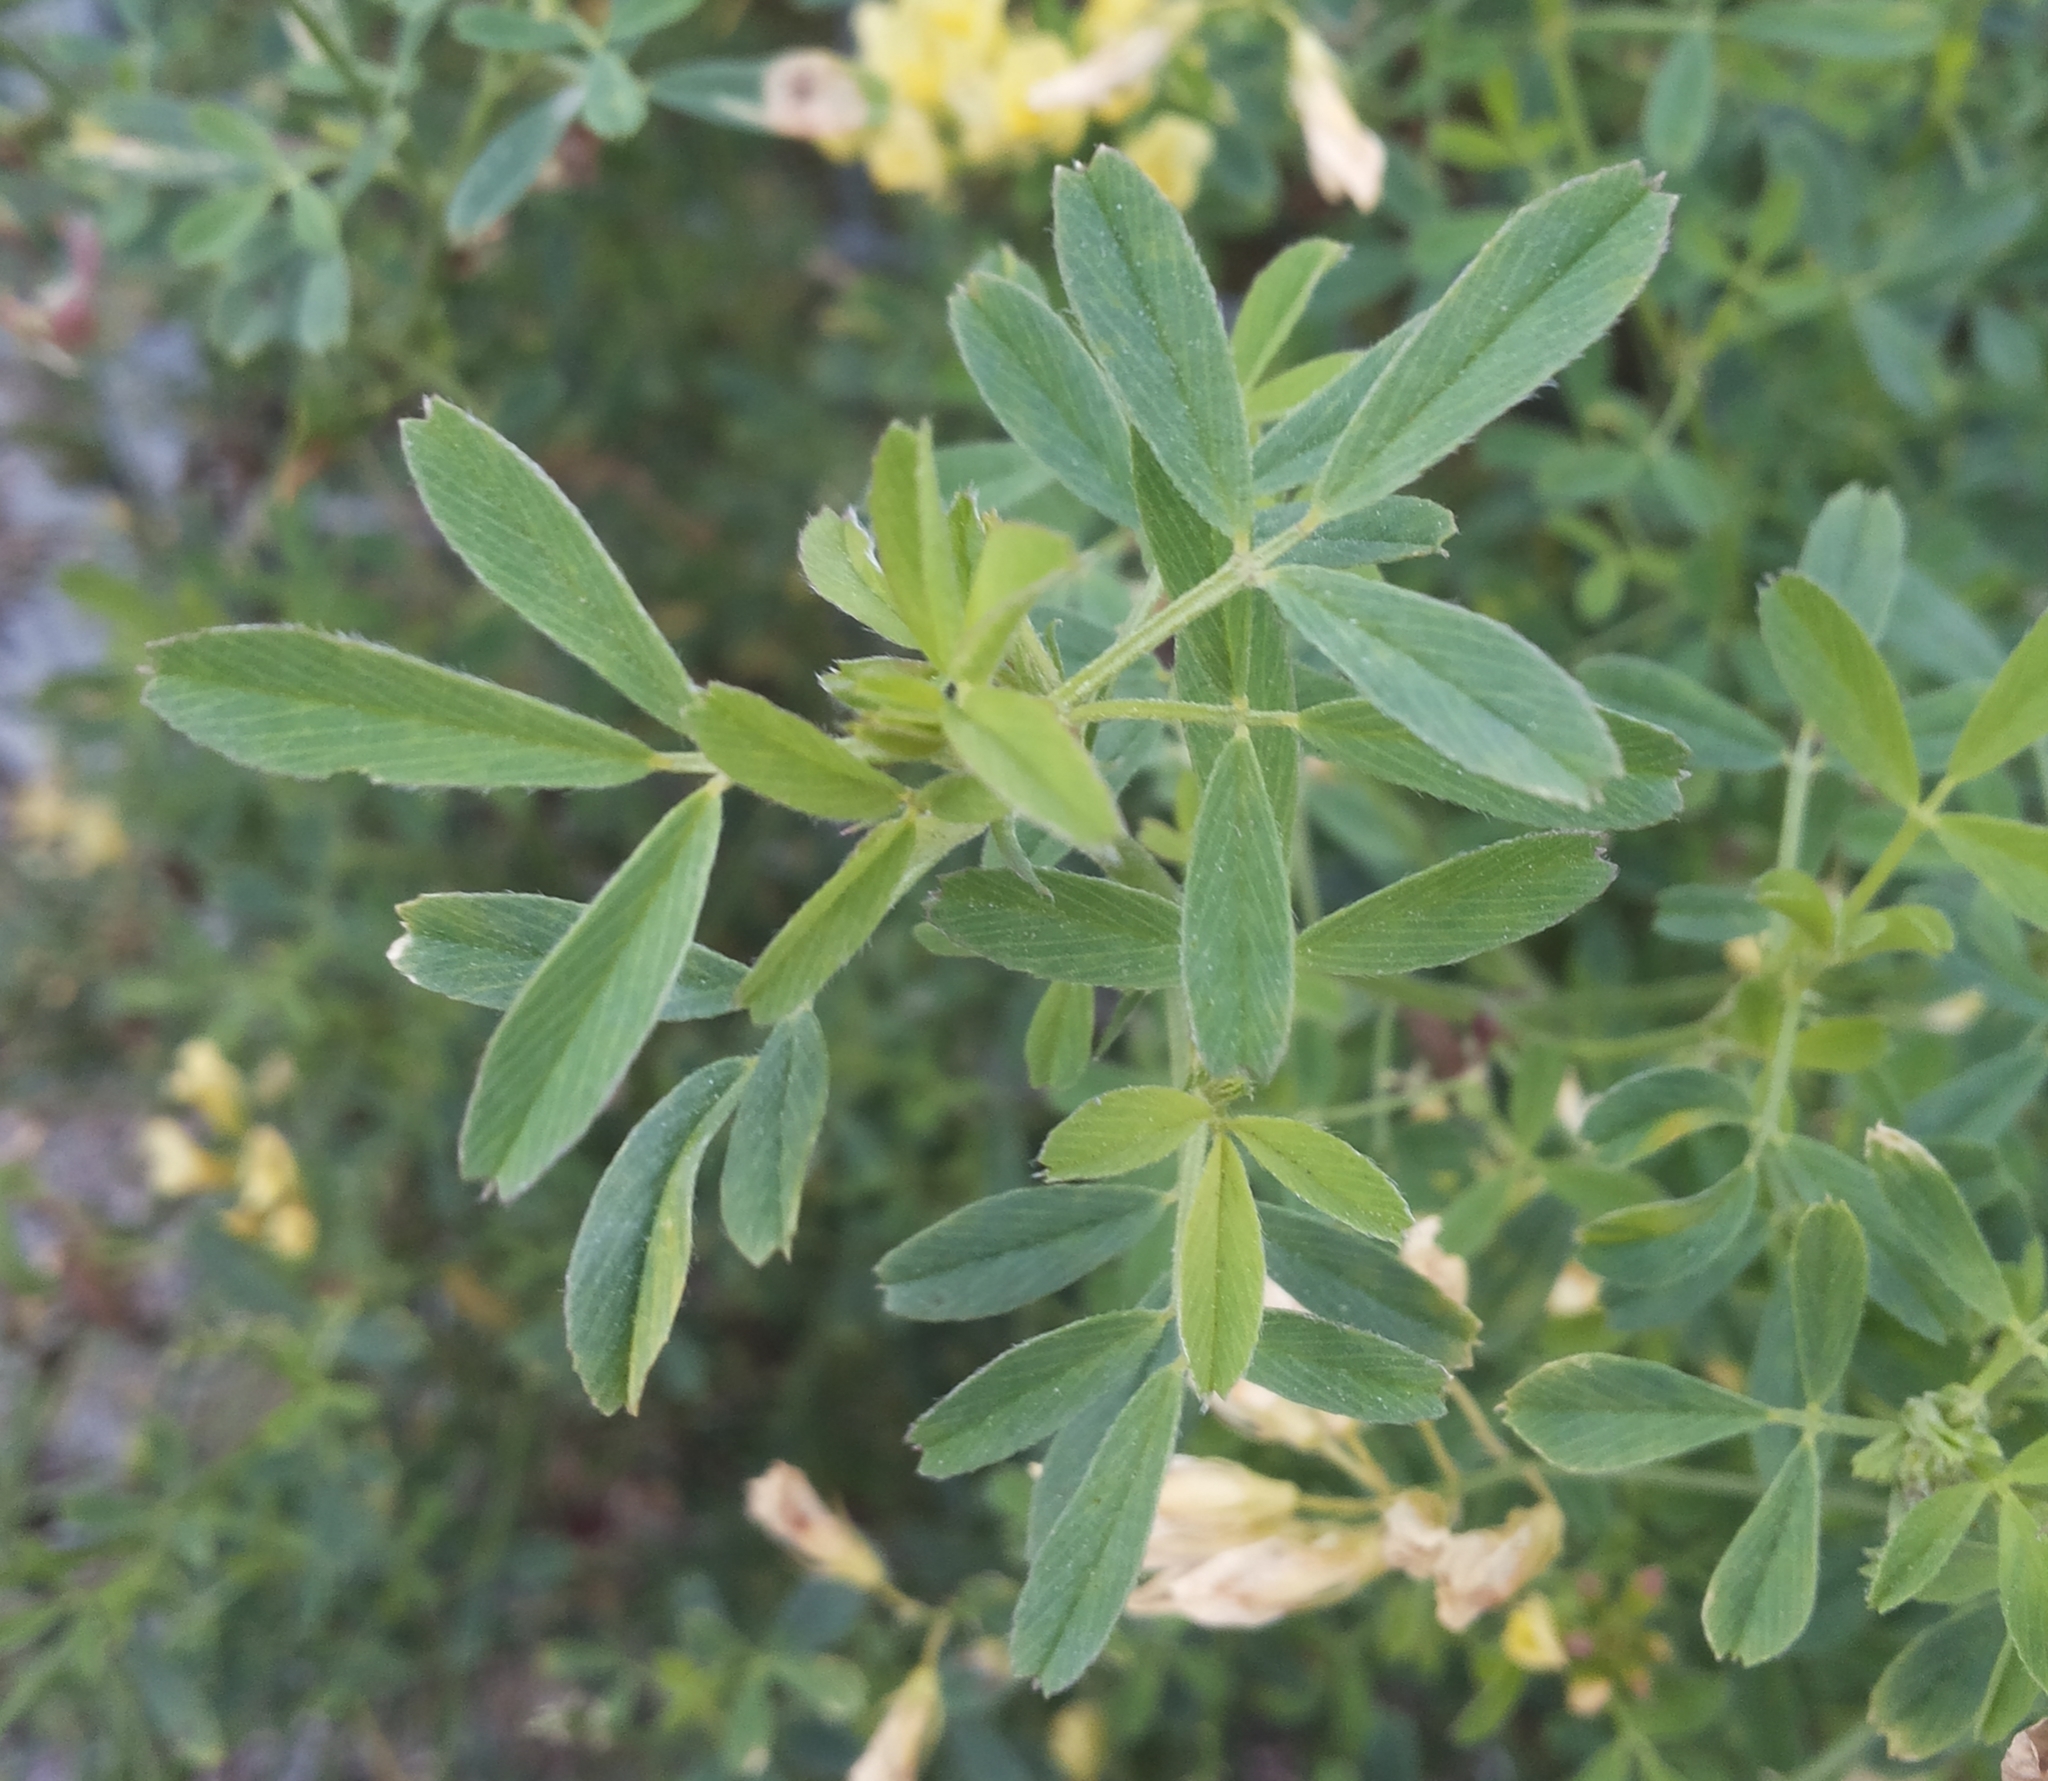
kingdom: Plantae
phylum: Tracheophyta
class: Magnoliopsida
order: Fabales
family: Fabaceae
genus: Medicago
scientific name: Medicago varia
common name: Sand lucerne
